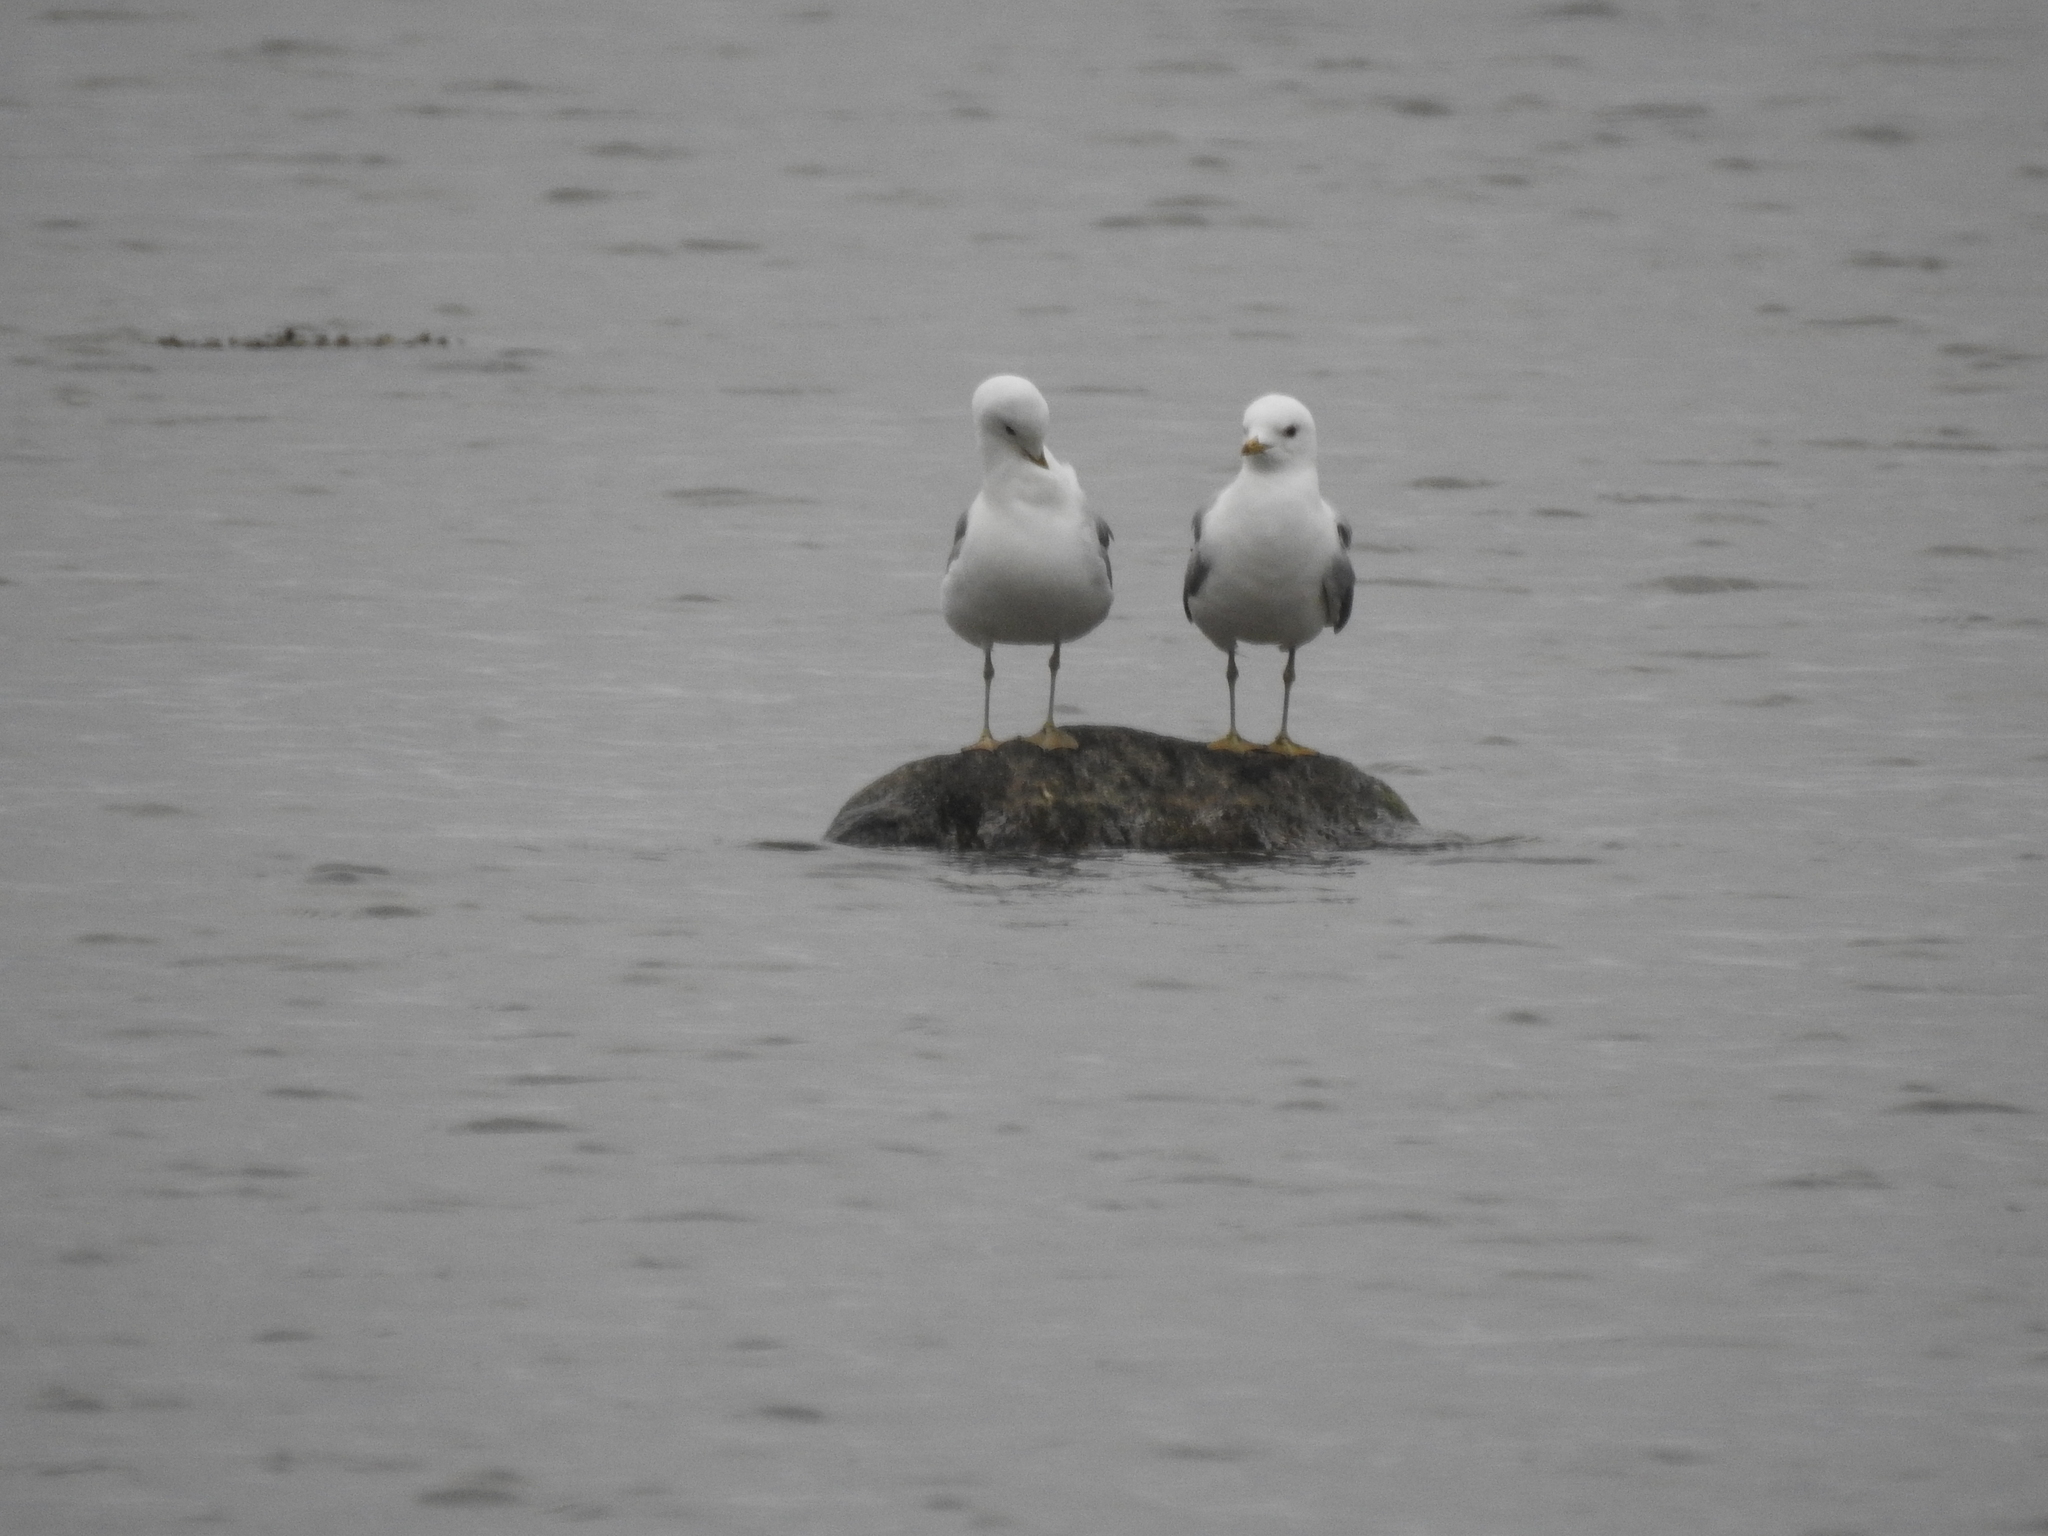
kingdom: Animalia
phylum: Chordata
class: Aves
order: Charadriiformes
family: Laridae
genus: Larus
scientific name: Larus canus
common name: Mew gull
